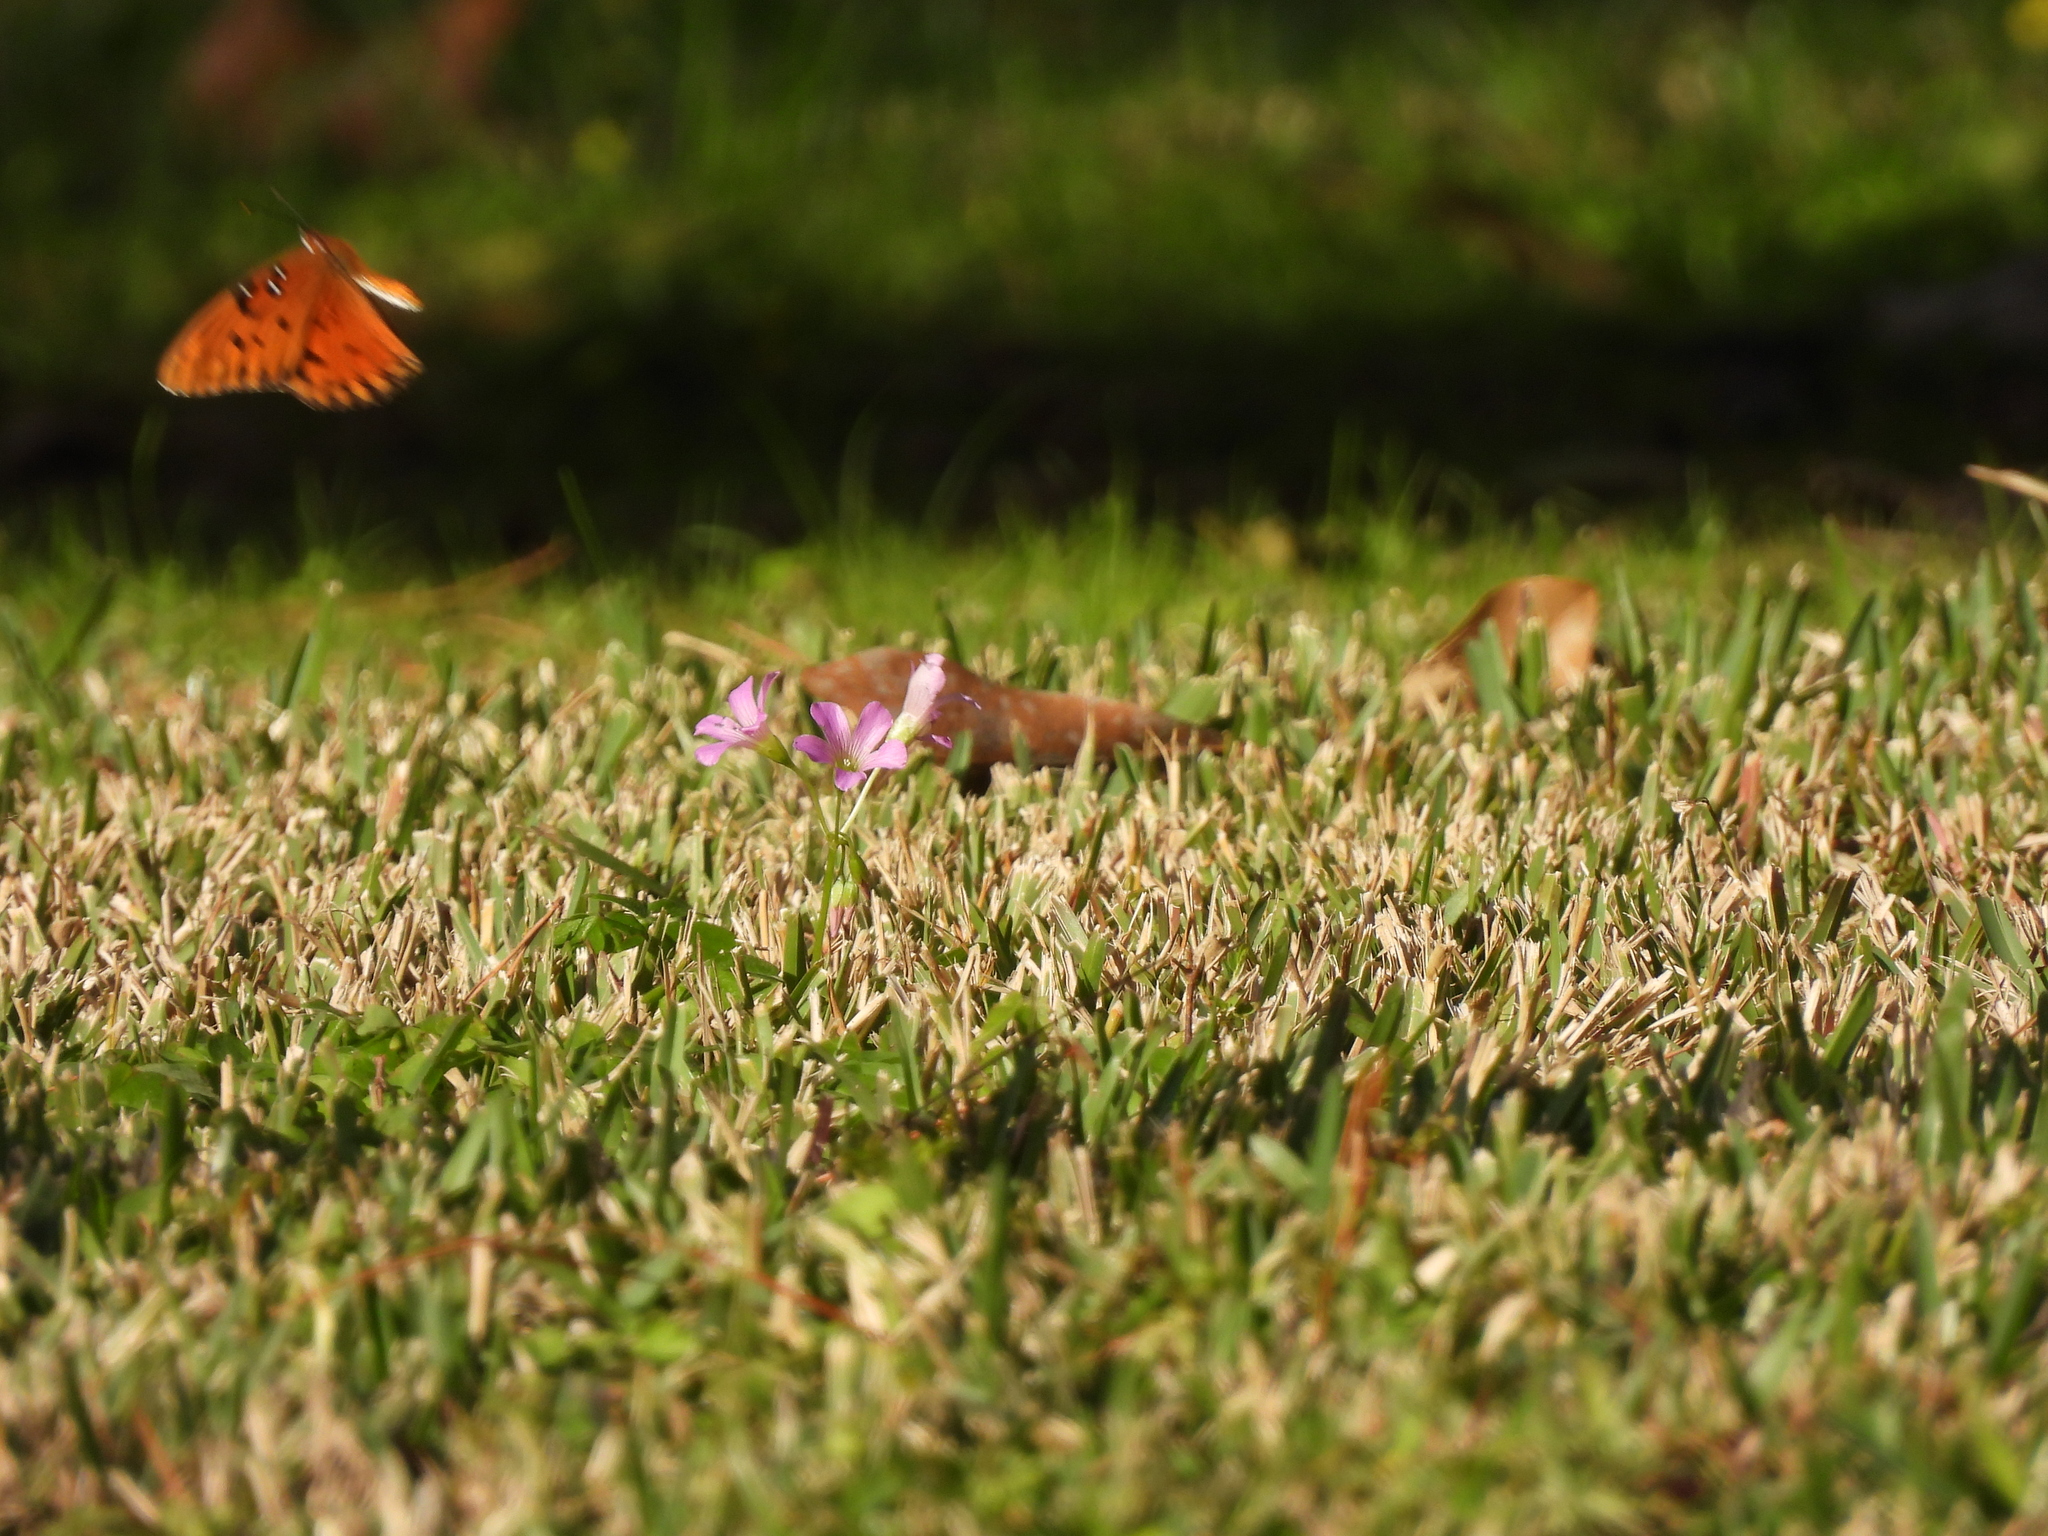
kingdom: Animalia
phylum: Arthropoda
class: Insecta
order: Lepidoptera
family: Nymphalidae
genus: Dione
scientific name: Dione vanillae
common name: Gulf fritillary
